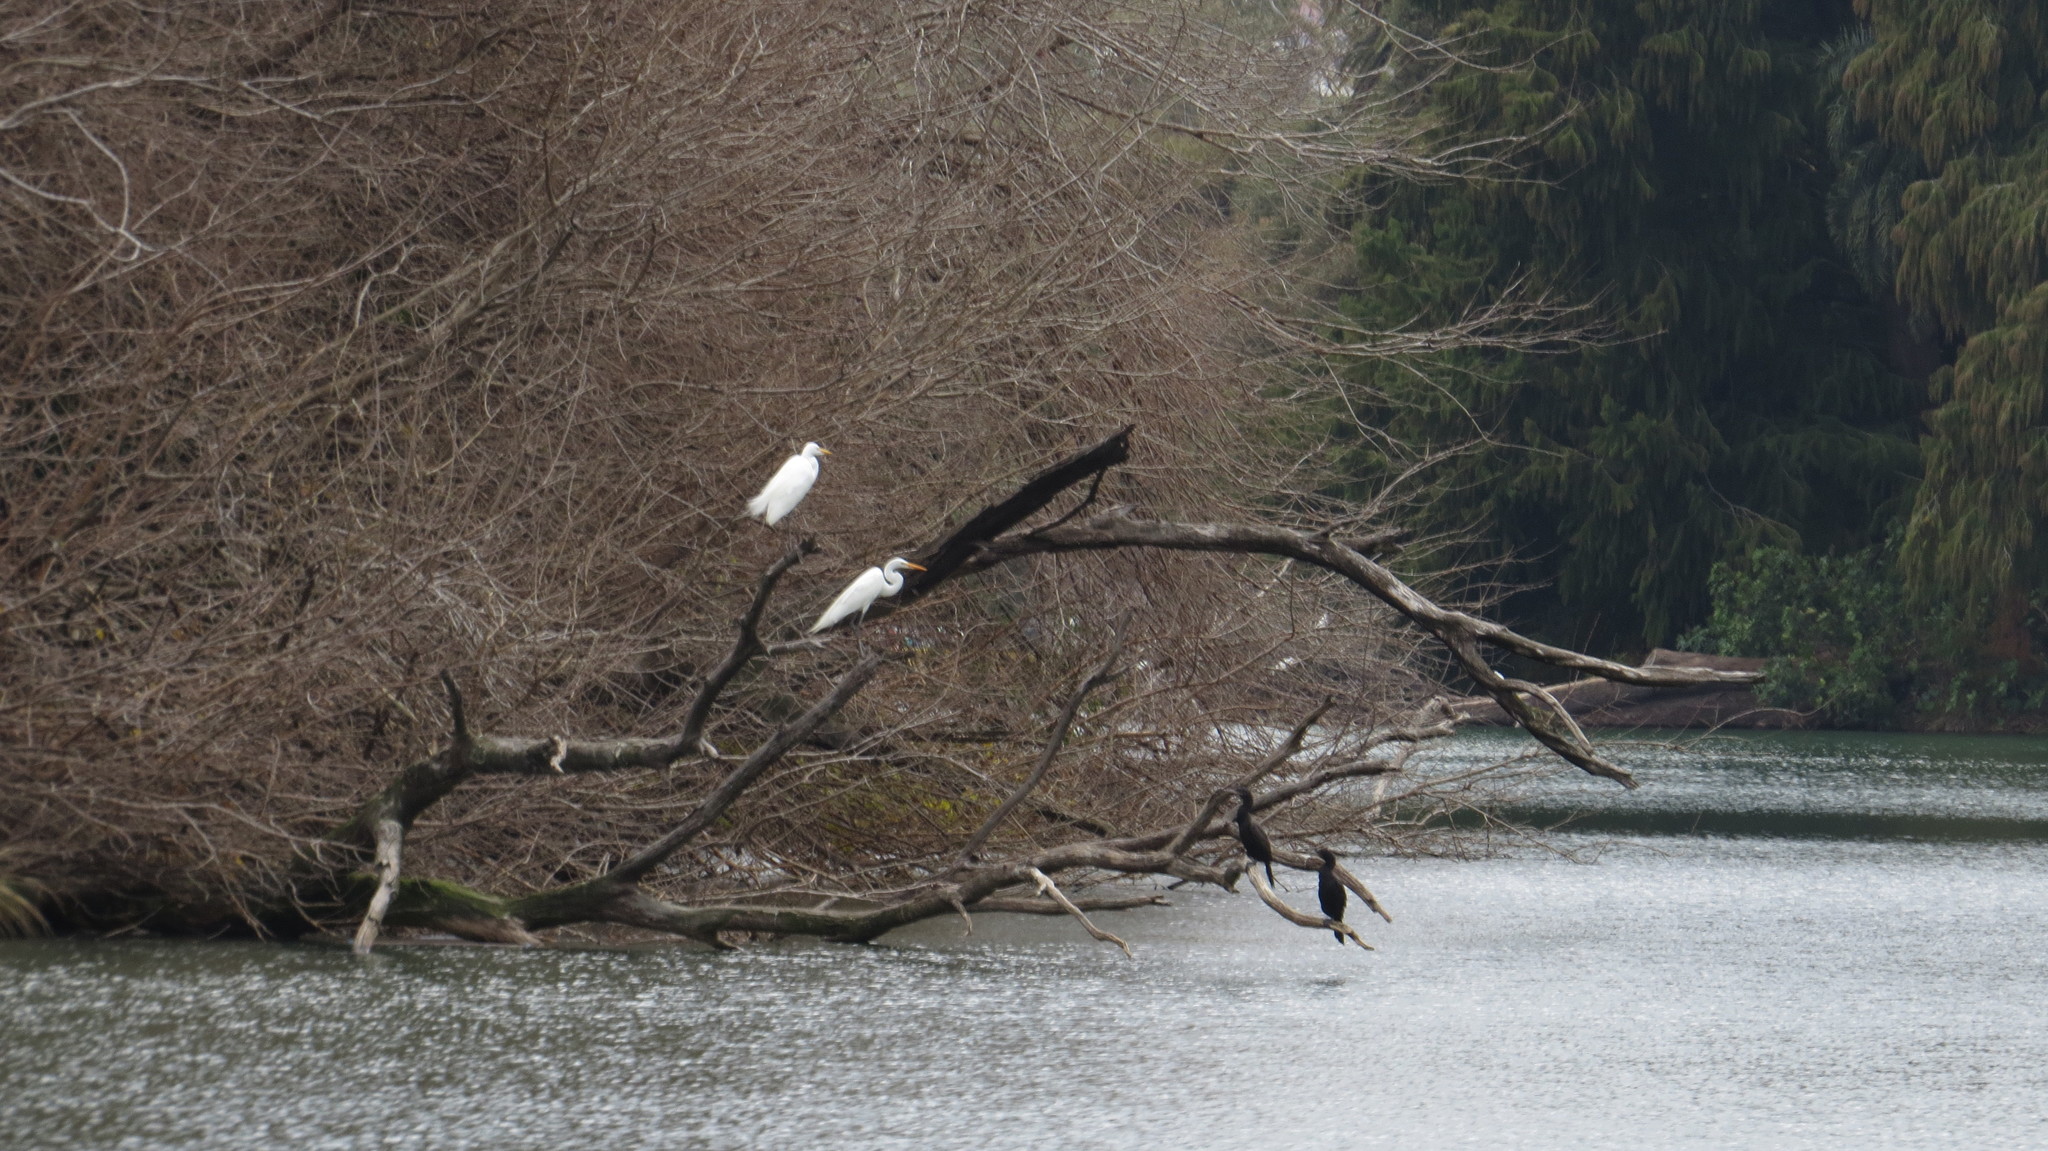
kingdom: Animalia
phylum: Chordata
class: Aves
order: Pelecaniformes
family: Ardeidae
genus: Ardea
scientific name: Ardea alba
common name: Great egret
